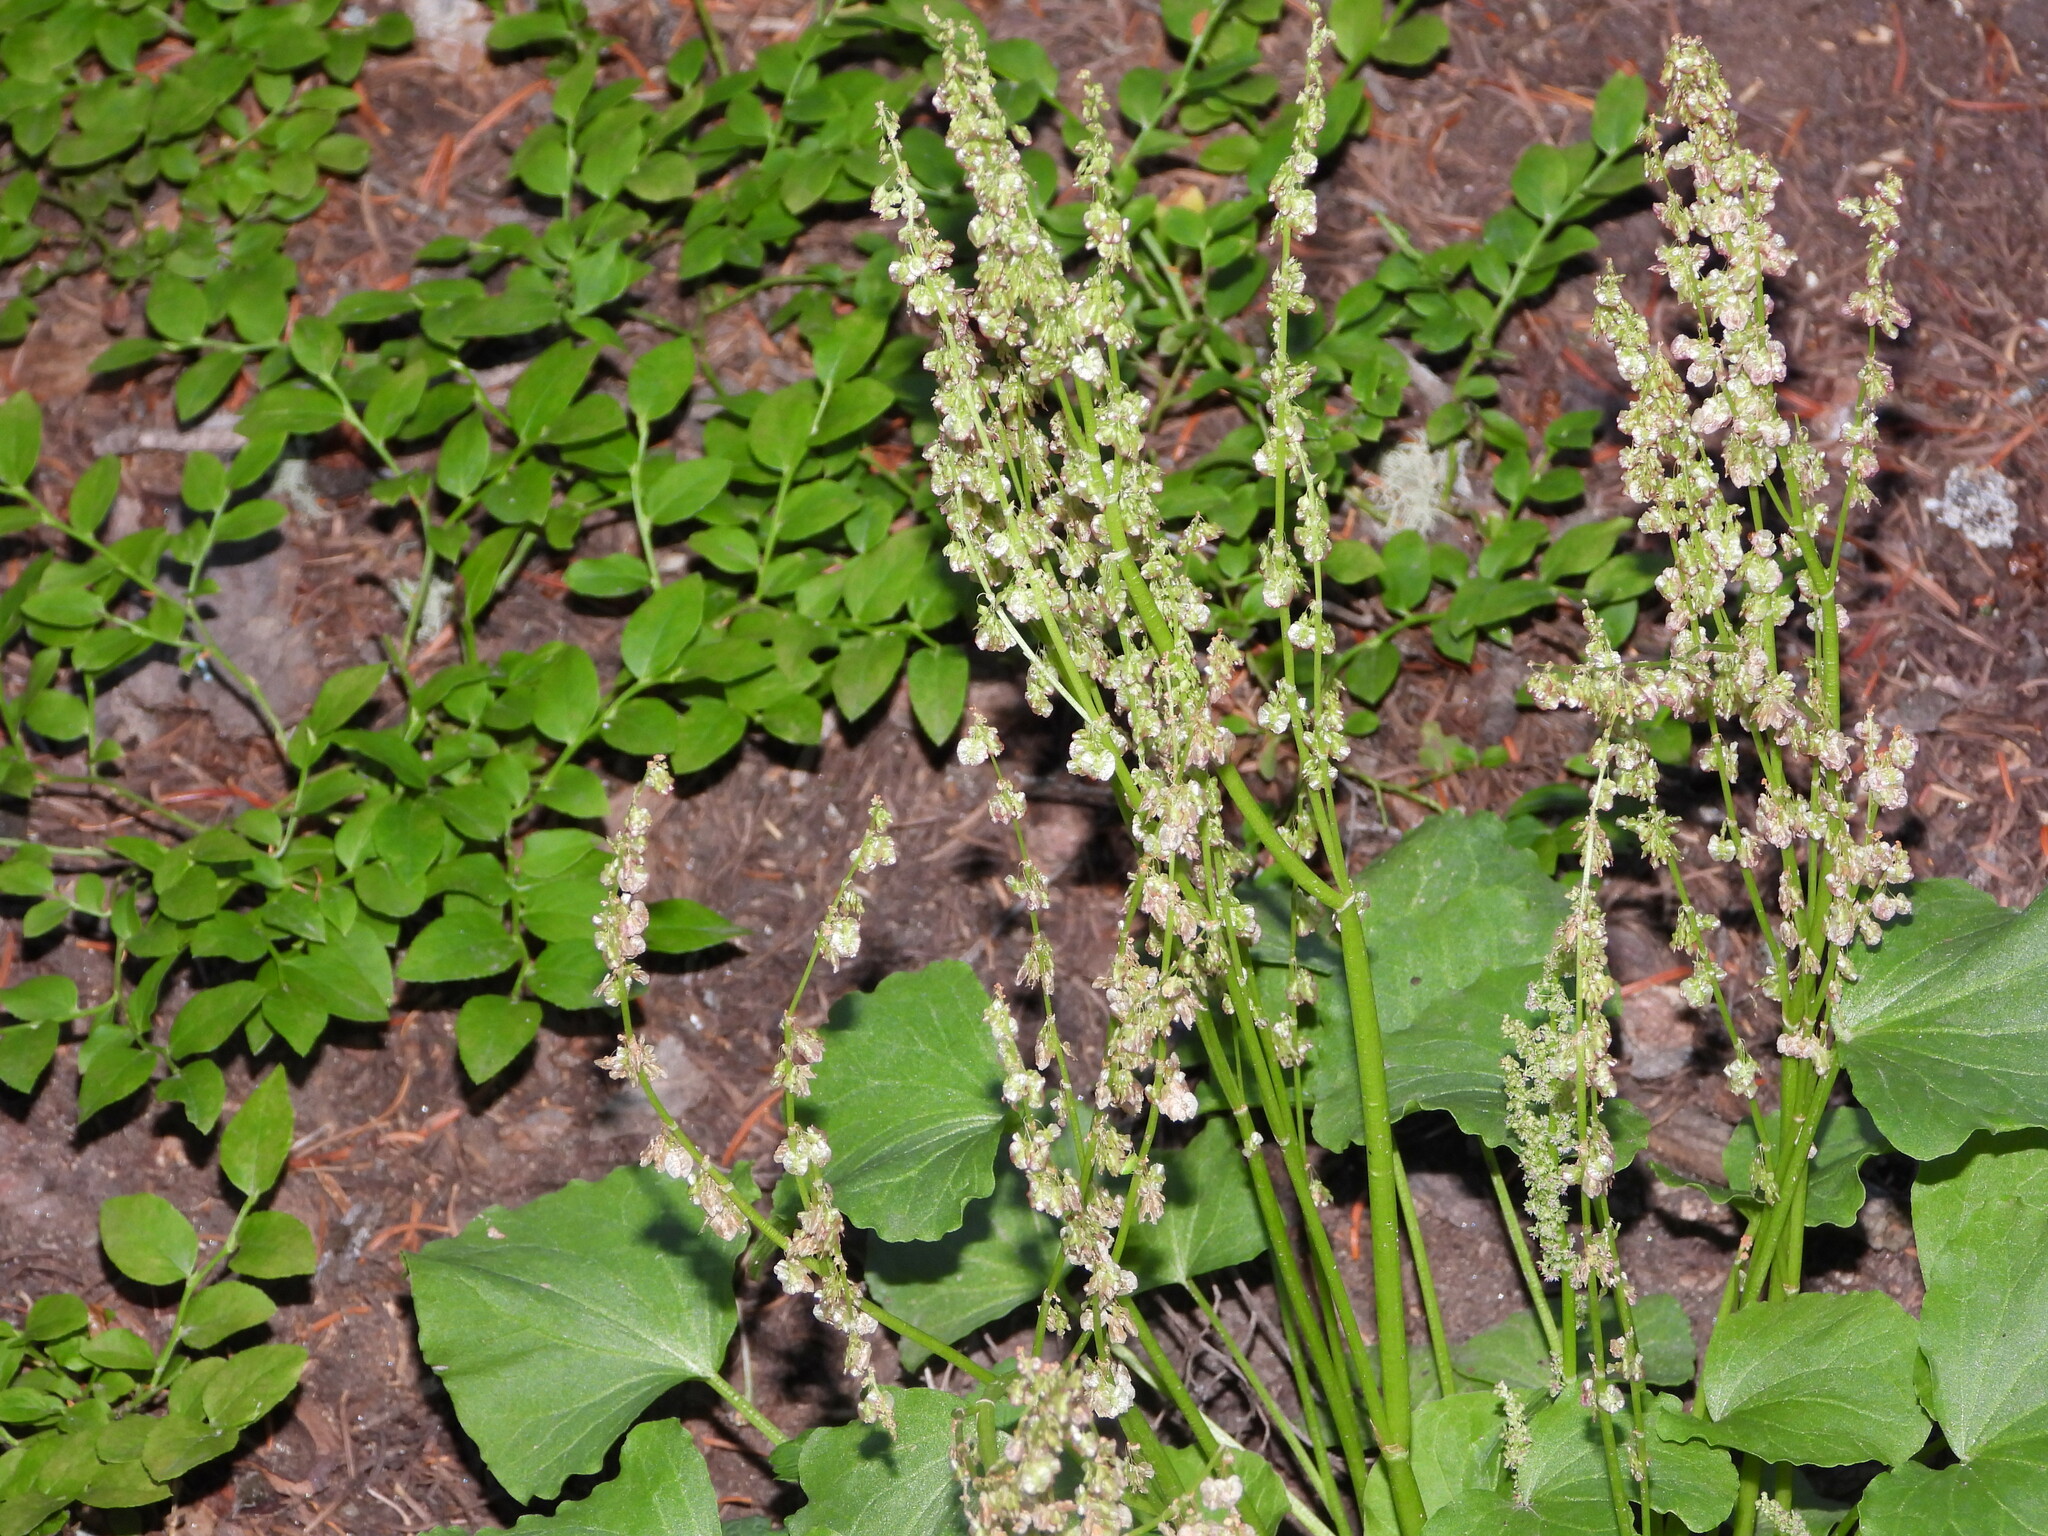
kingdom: Plantae
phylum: Tracheophyta
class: Magnoliopsida
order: Caryophyllales
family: Polygonaceae
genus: Oxyria
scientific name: Oxyria digyna
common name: Alpine mountain-sorrel
